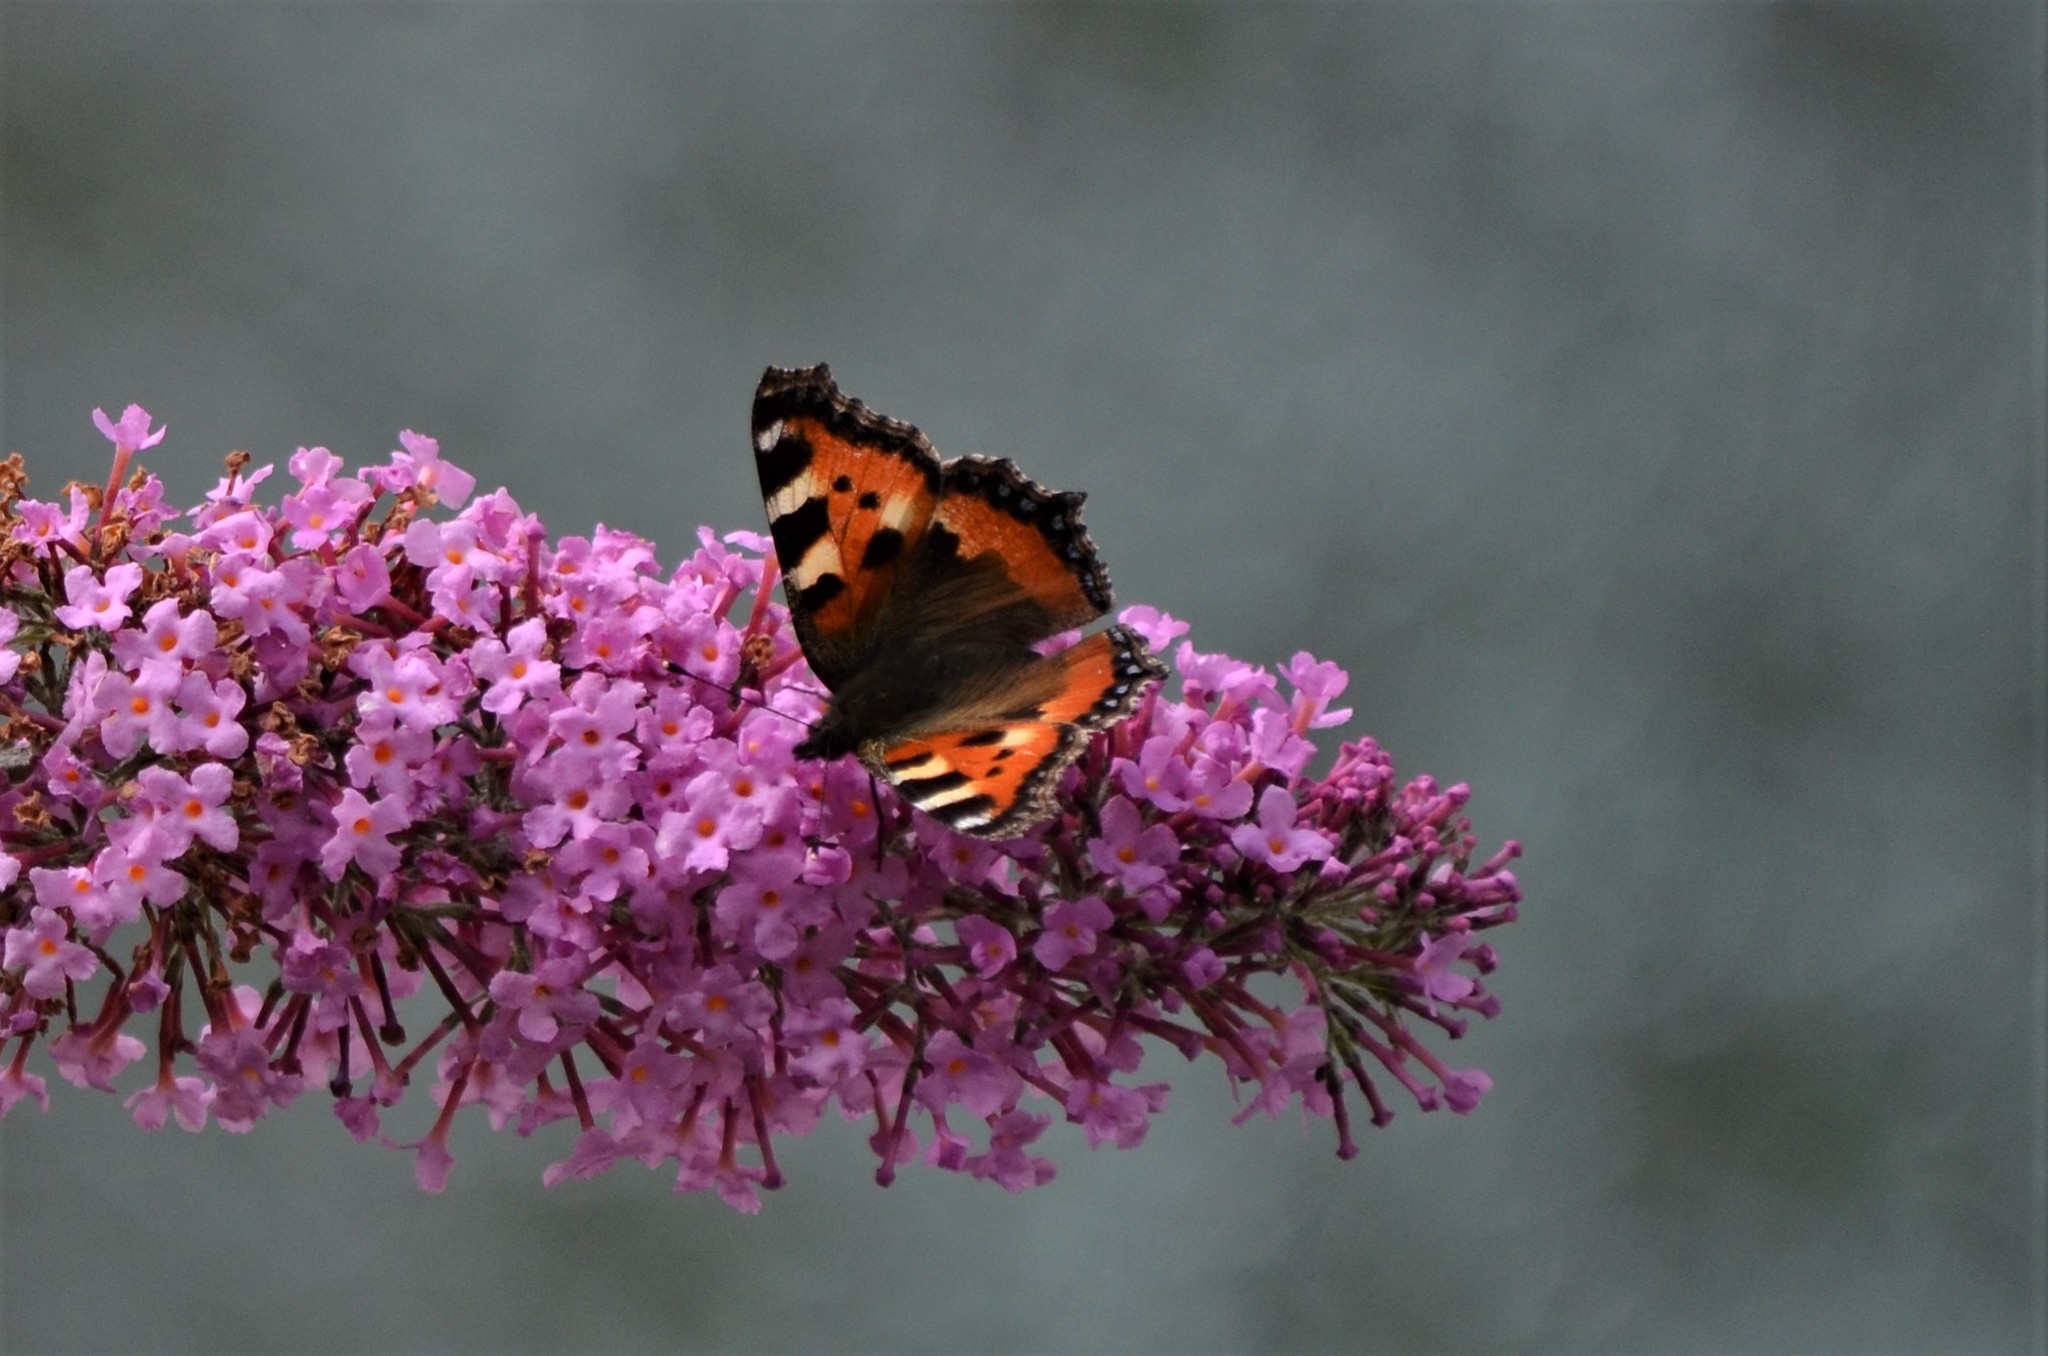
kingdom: Animalia
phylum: Arthropoda
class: Insecta
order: Lepidoptera
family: Nymphalidae
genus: Aglais
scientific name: Aglais urticae
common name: Small tortoiseshell
